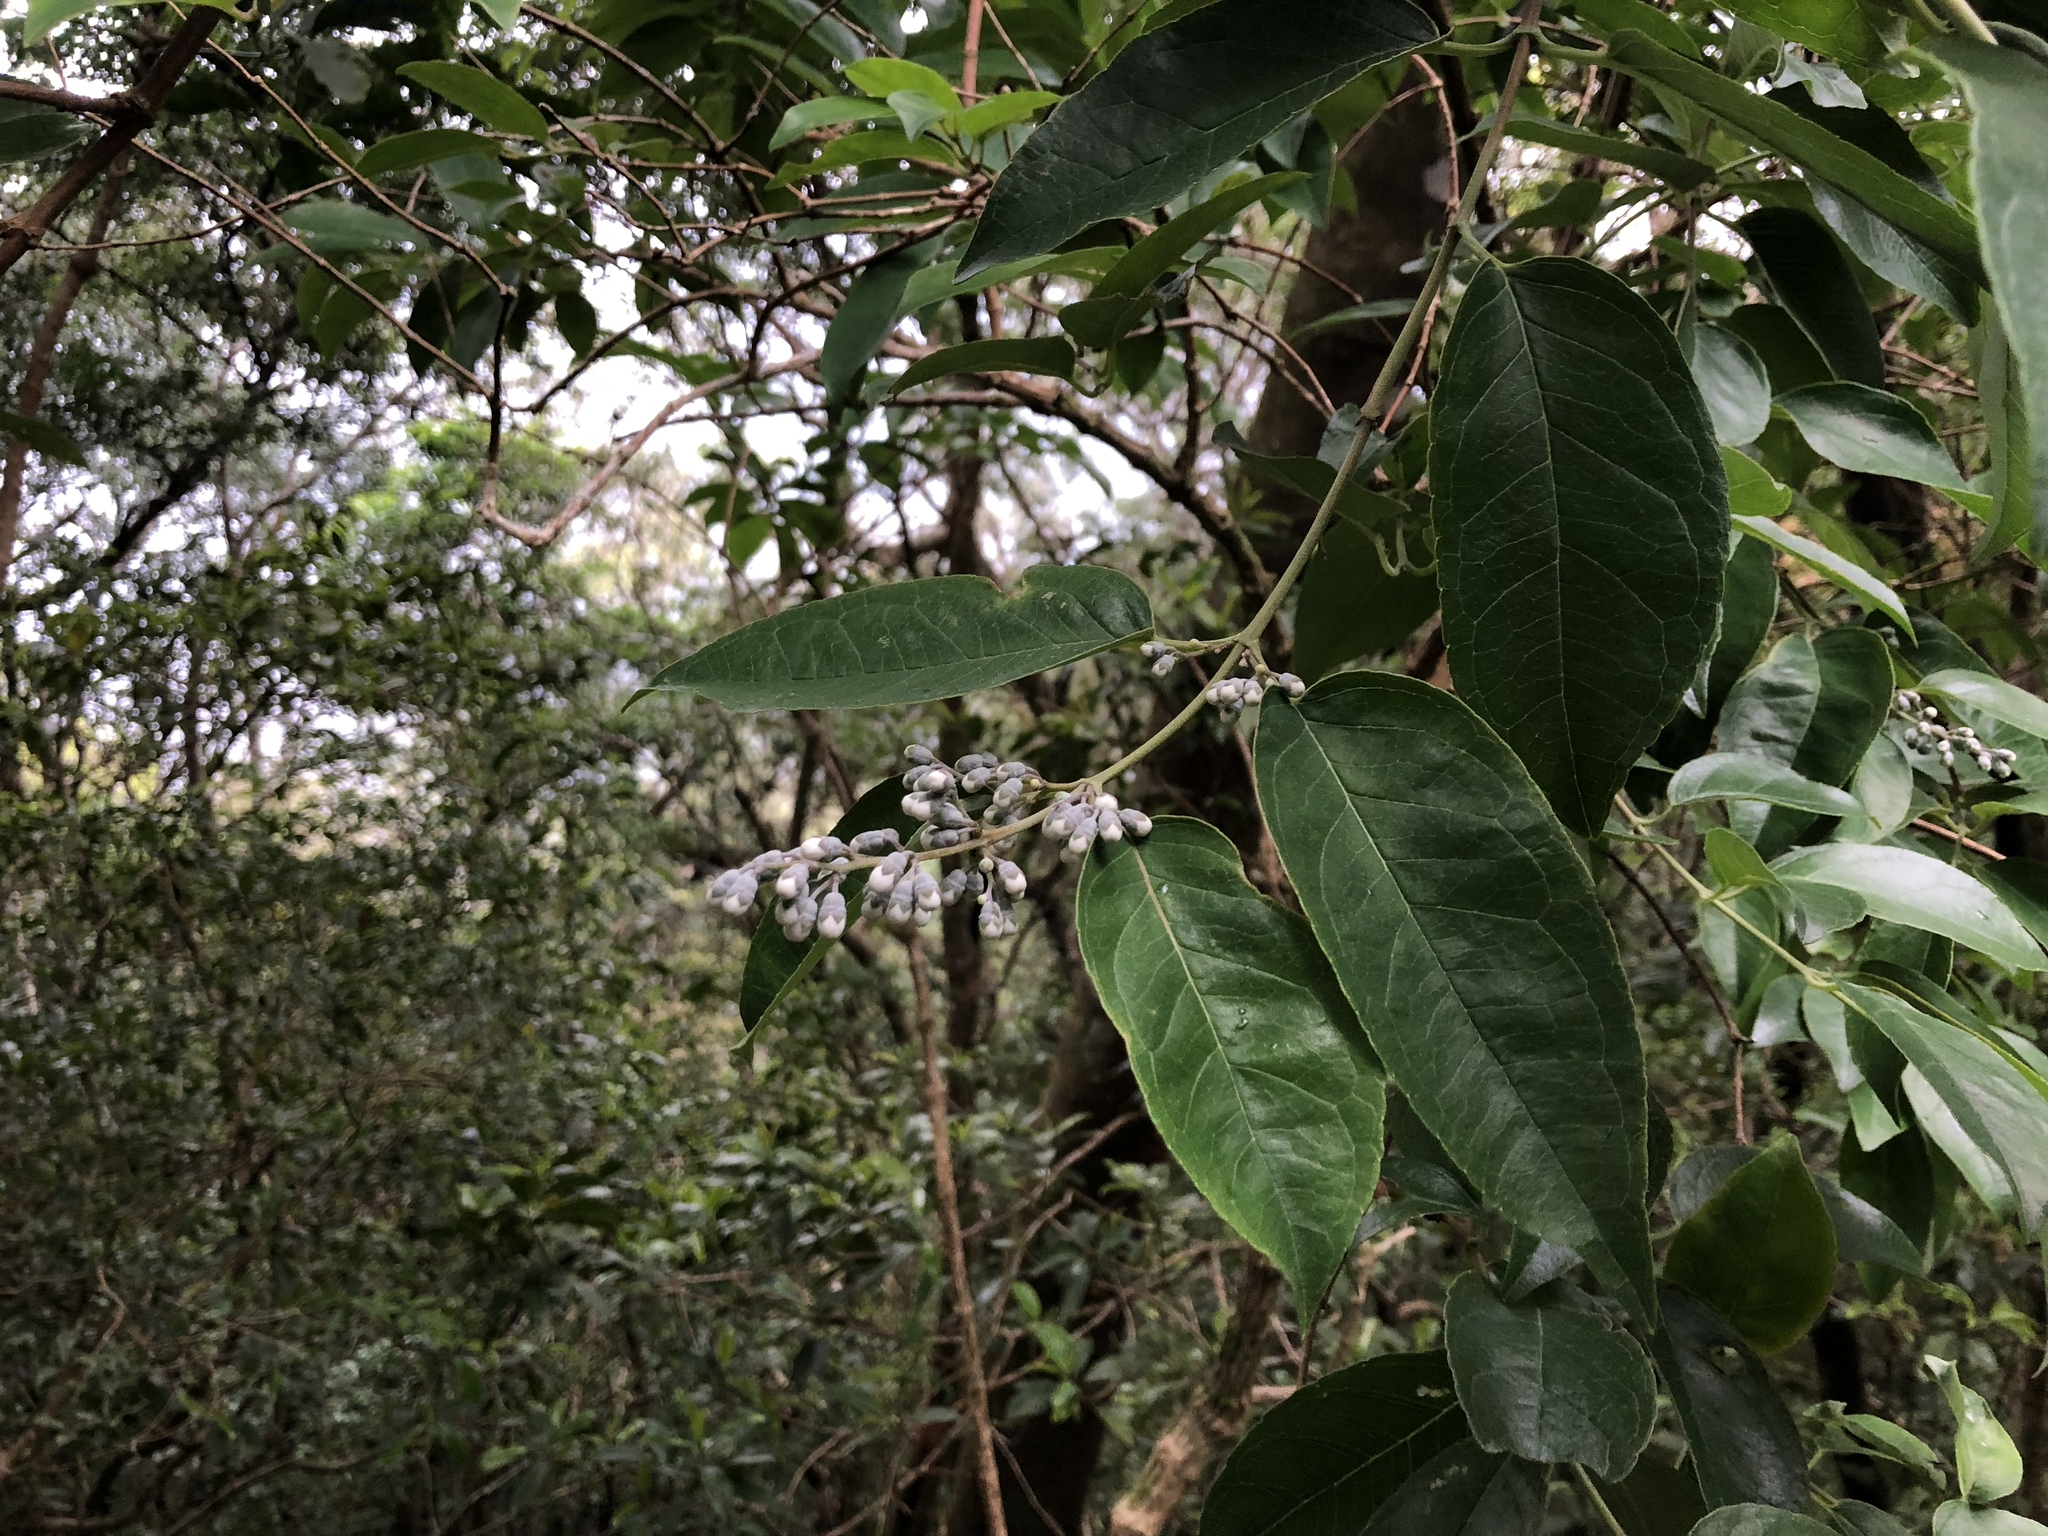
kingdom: Plantae
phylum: Tracheophyta
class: Magnoliopsida
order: Cornales
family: Hydrangeaceae
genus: Deutzia
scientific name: Deutzia pulchra
